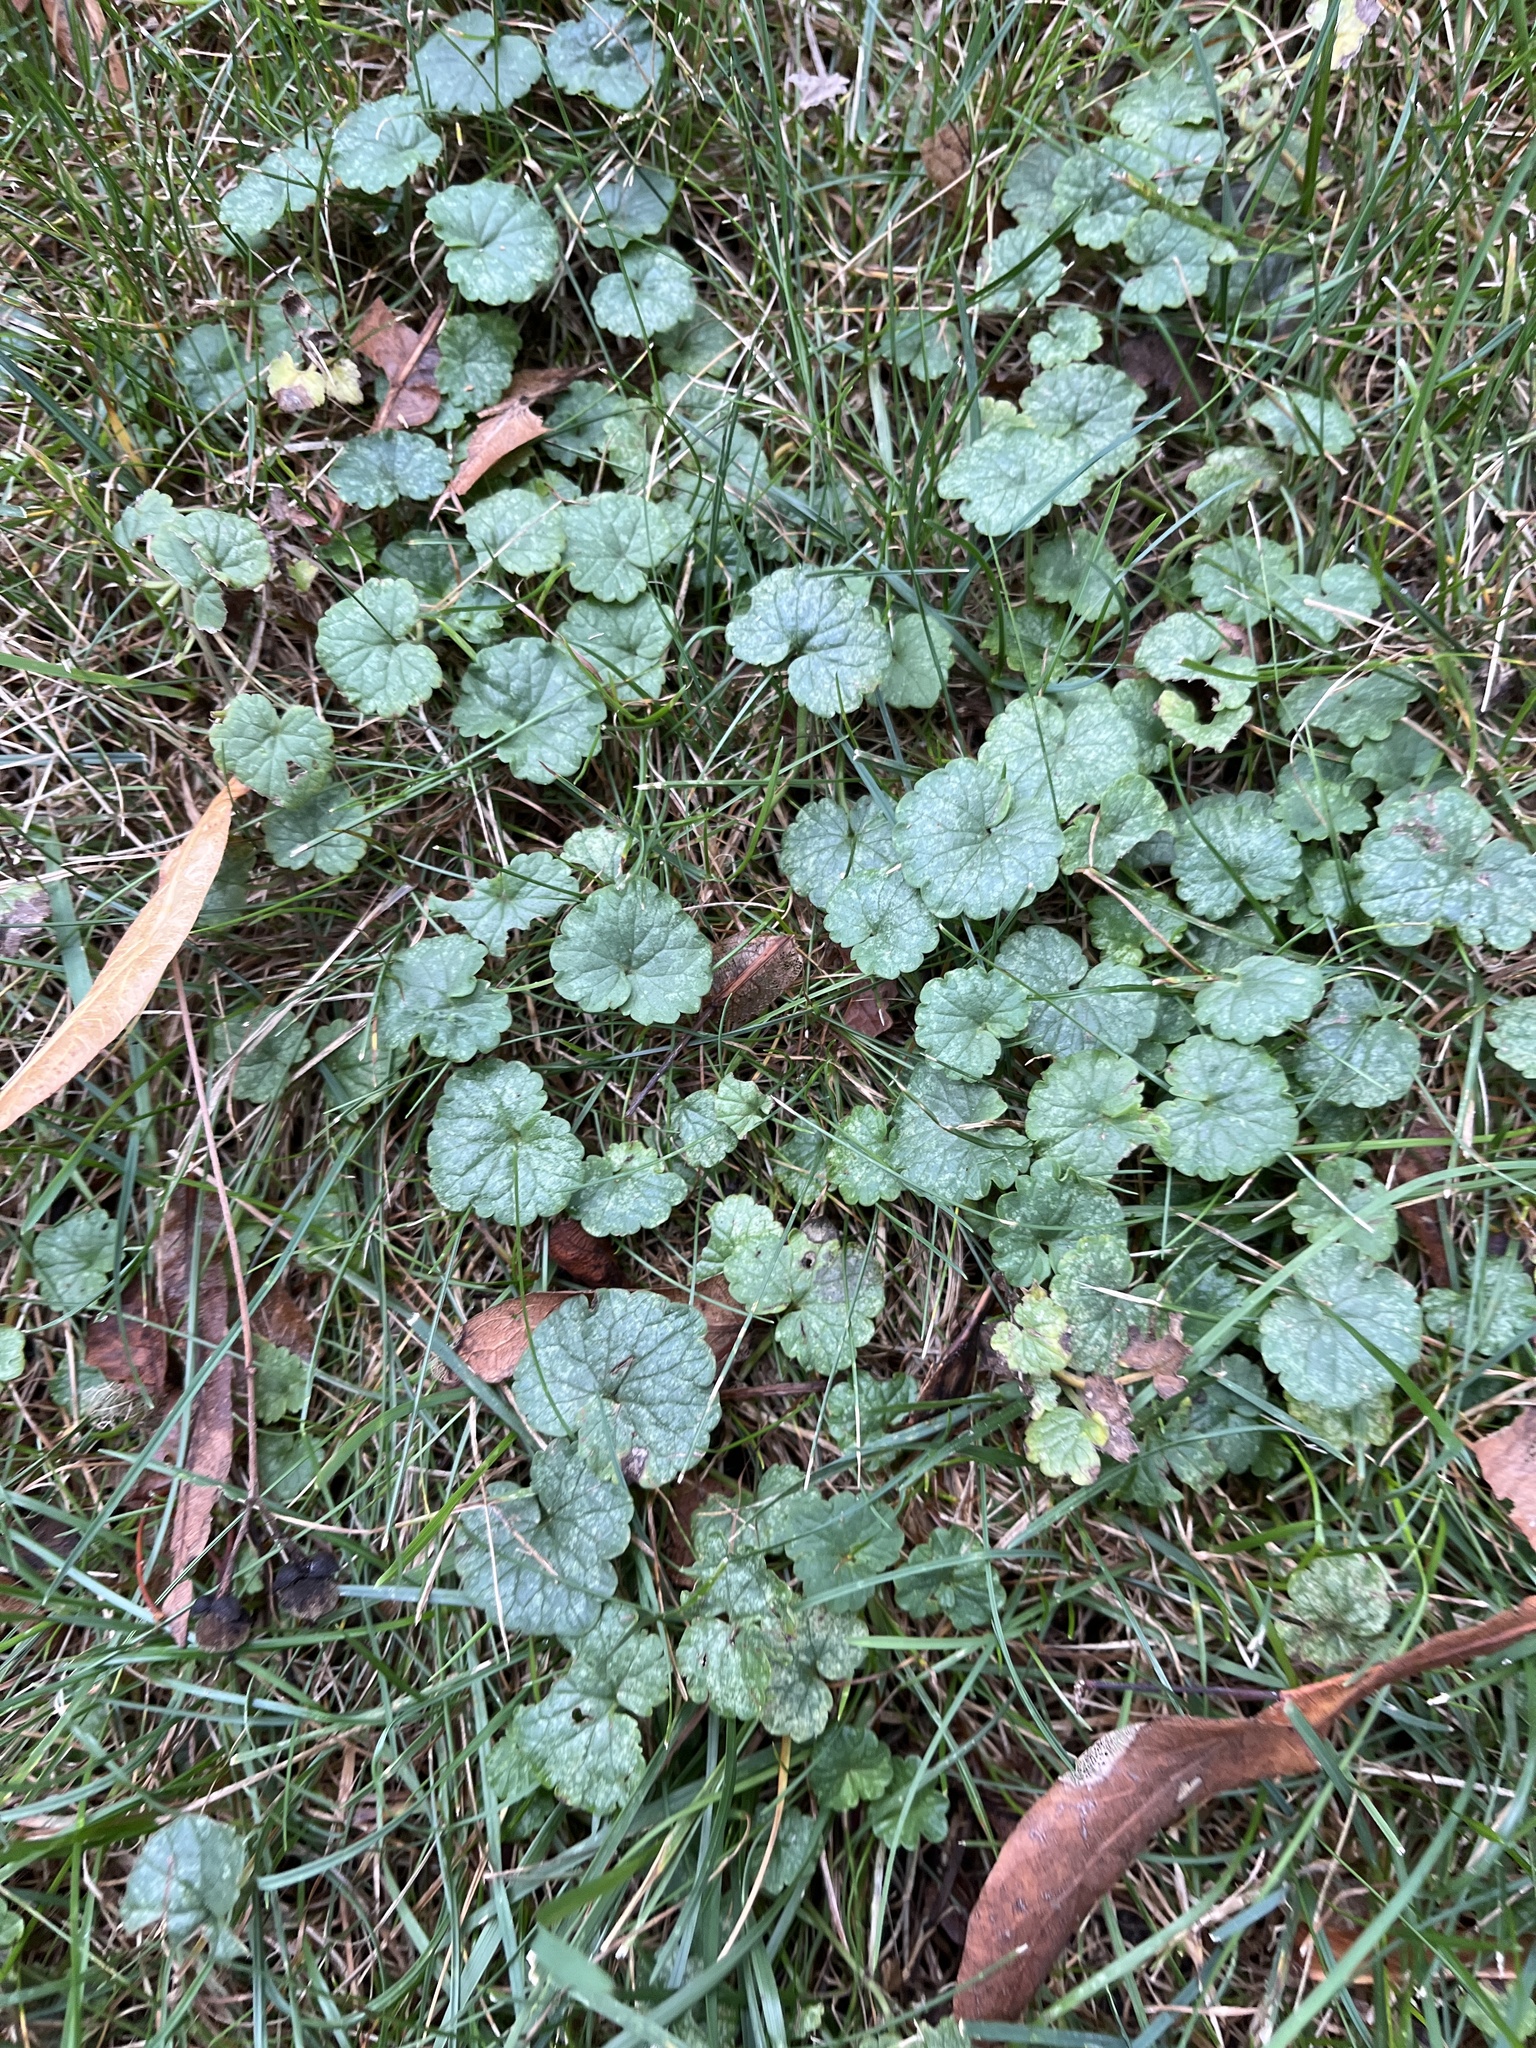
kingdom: Plantae
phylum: Tracheophyta
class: Magnoliopsida
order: Lamiales
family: Lamiaceae
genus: Glechoma
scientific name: Glechoma hederacea
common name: Ground ivy
